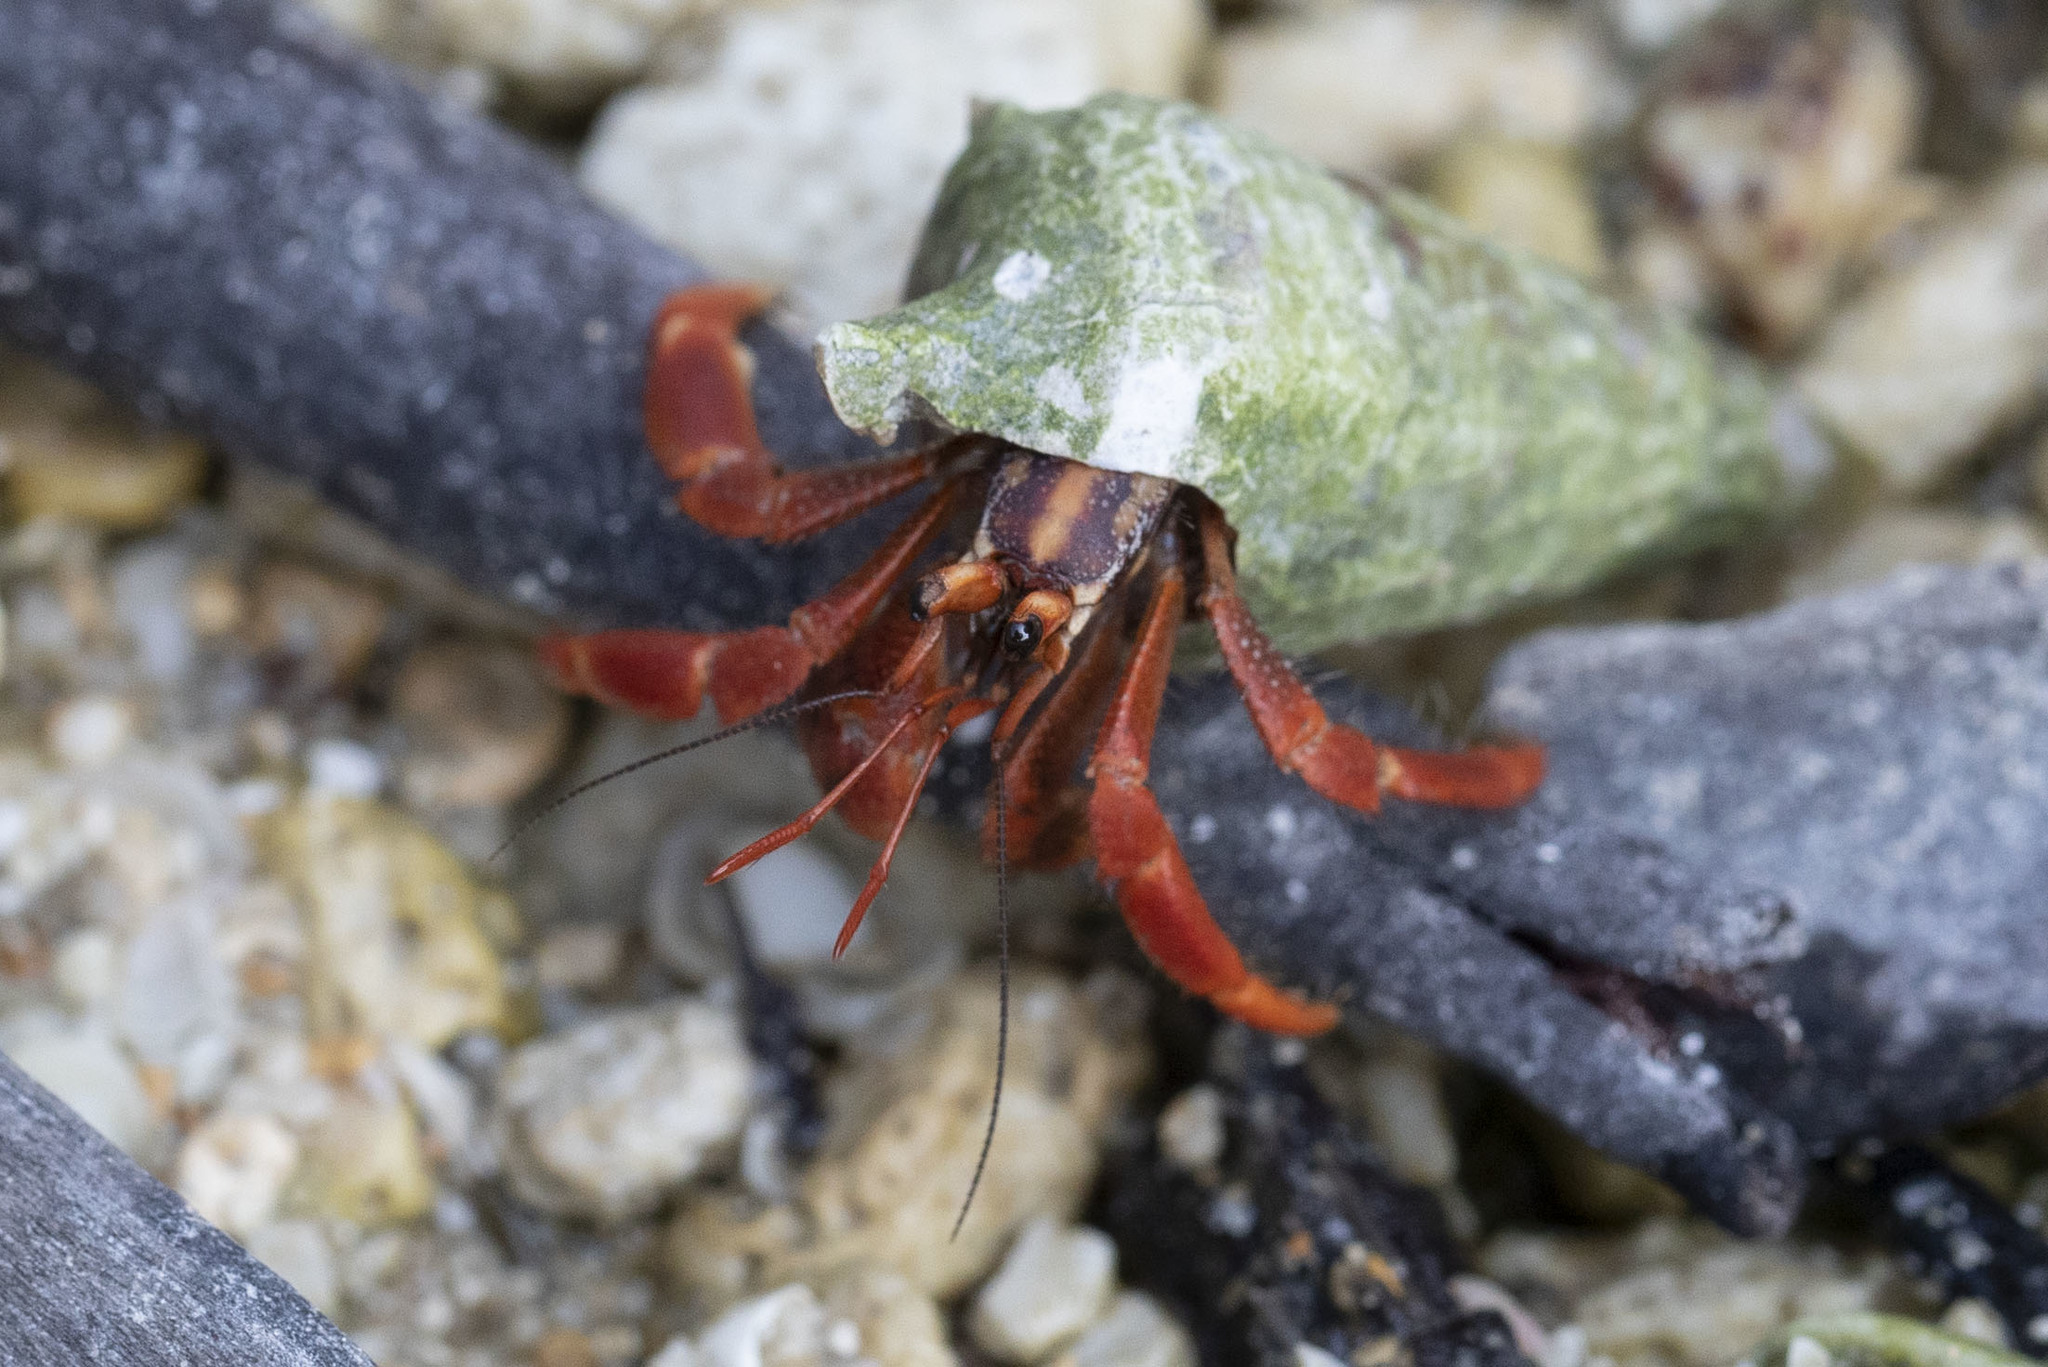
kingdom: Animalia
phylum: Arthropoda
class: Malacostraca
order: Decapoda
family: Coenobitidae
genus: Coenobita
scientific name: Coenobita violascens
